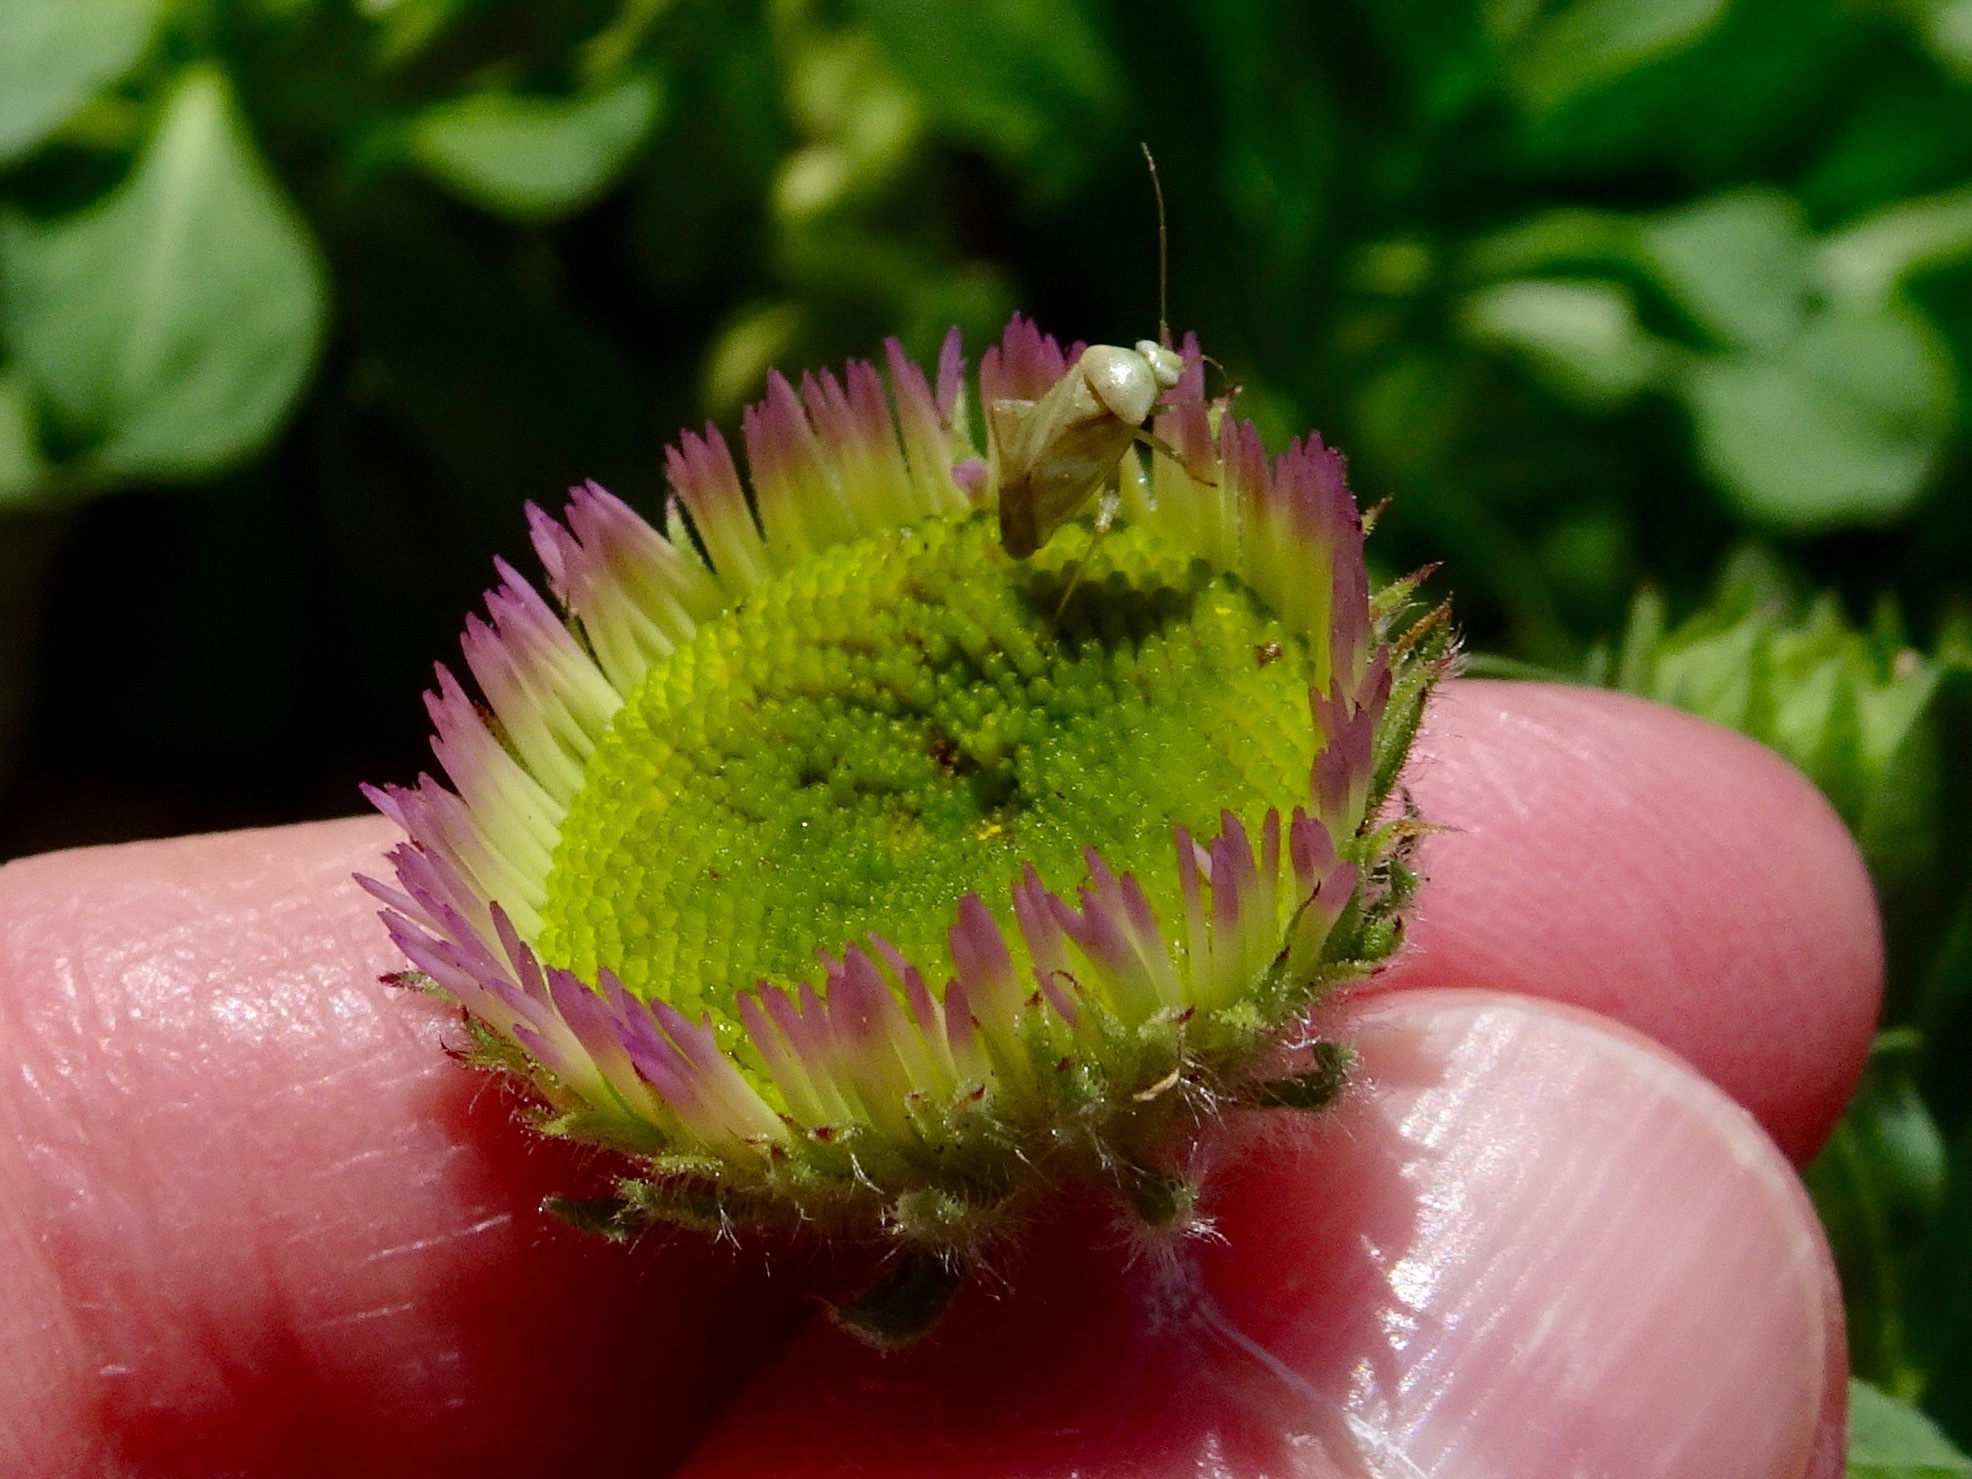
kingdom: Animalia
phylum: Arthropoda
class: Insecta
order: Hemiptera
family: Miridae
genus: Taylorilygus
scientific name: Taylorilygus apicalis
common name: Plant bug
